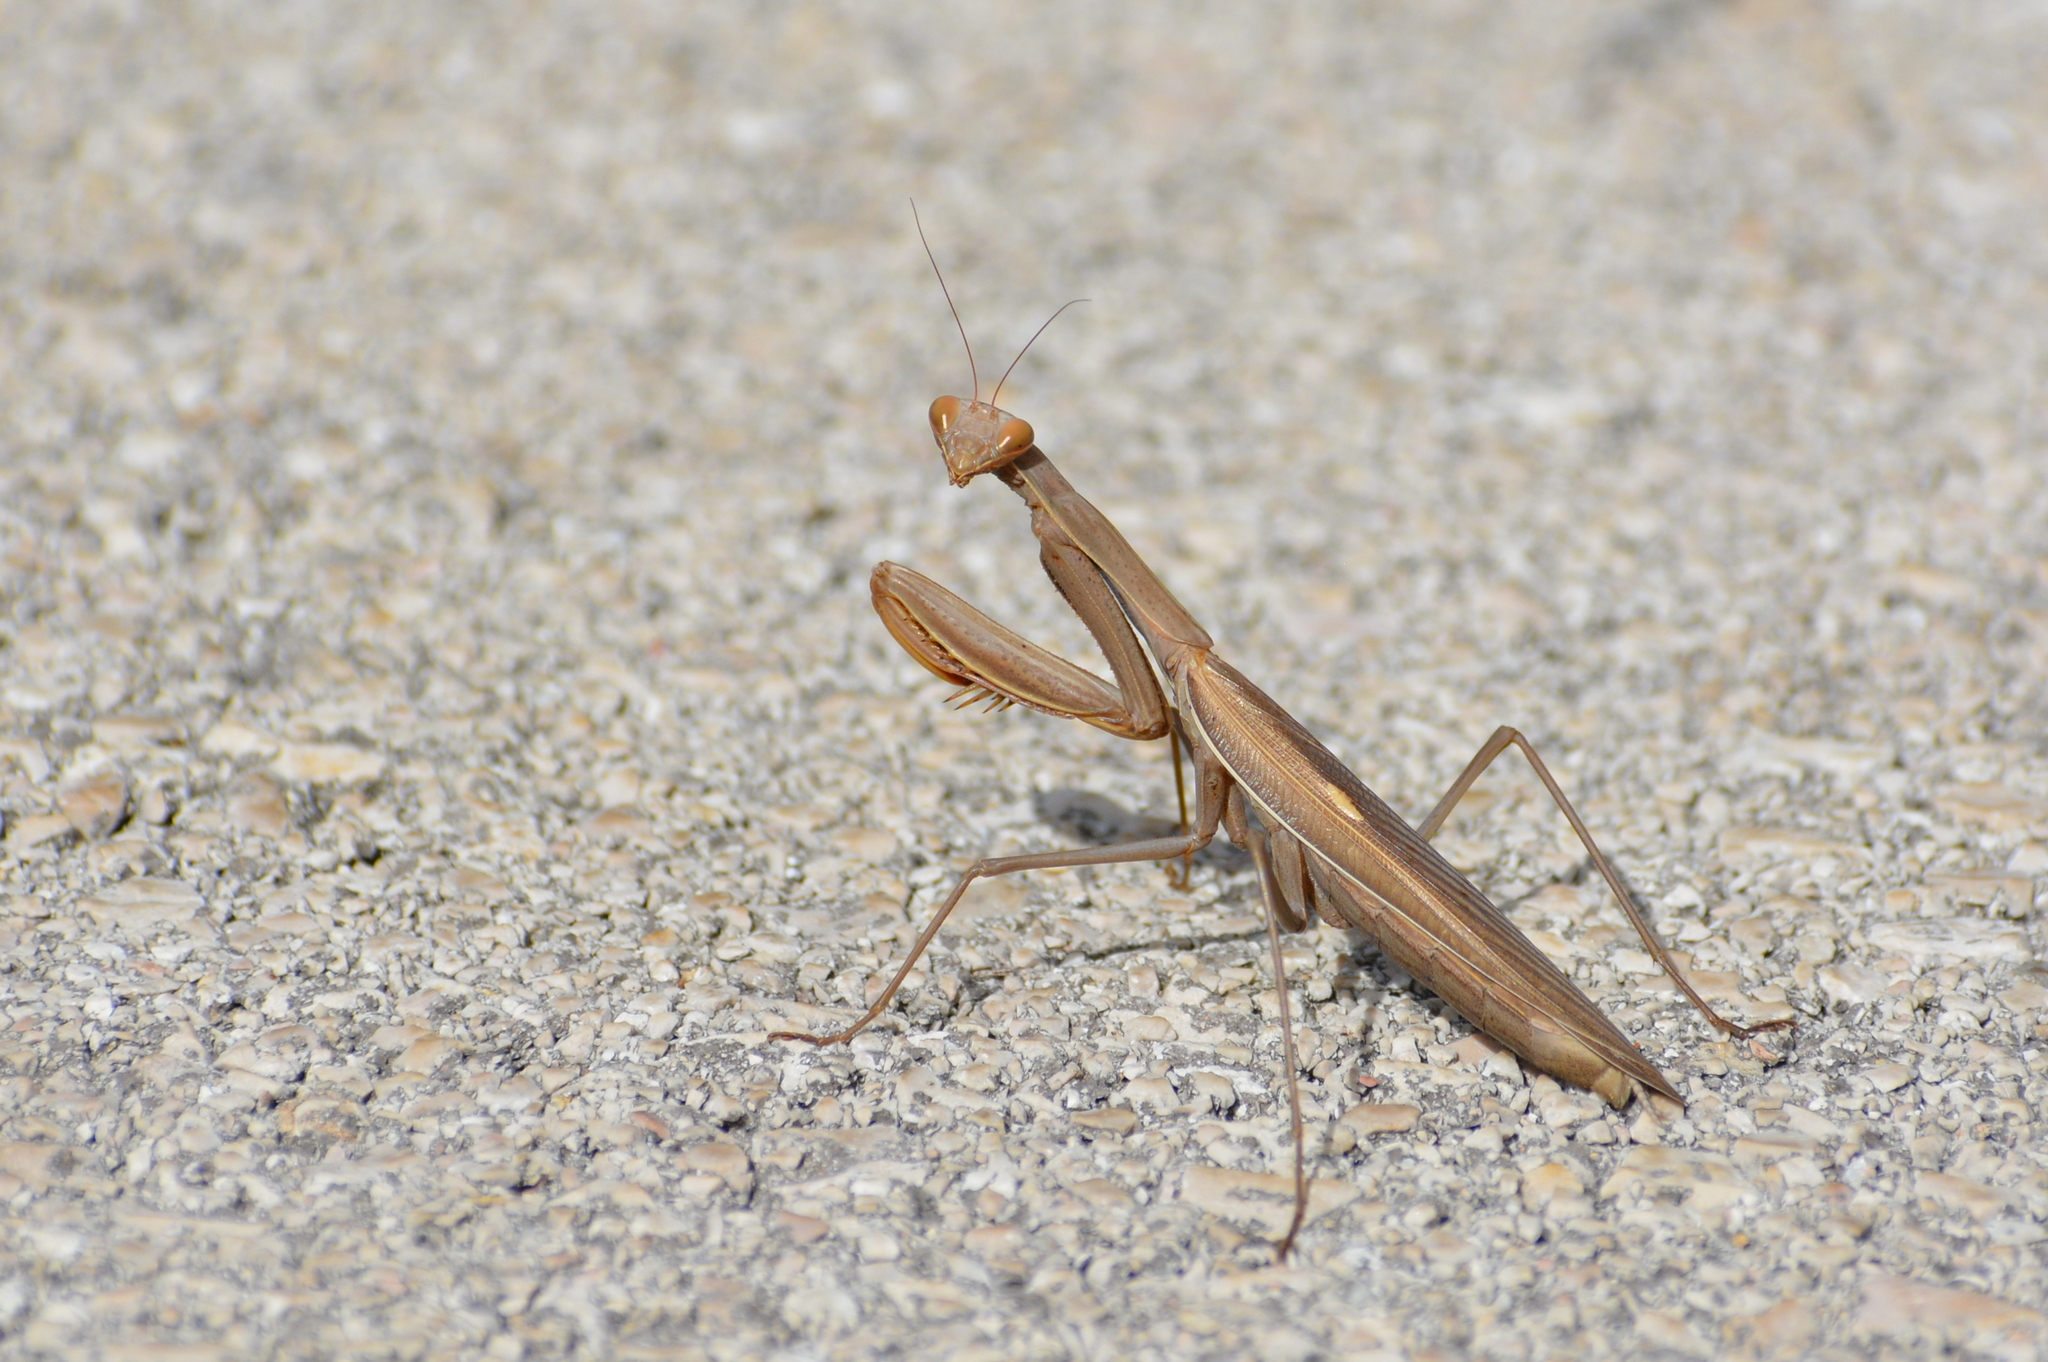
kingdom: Animalia
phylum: Arthropoda
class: Insecta
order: Mantodea
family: Mantidae
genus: Mantis
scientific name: Mantis religiosa
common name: Praying mantis
